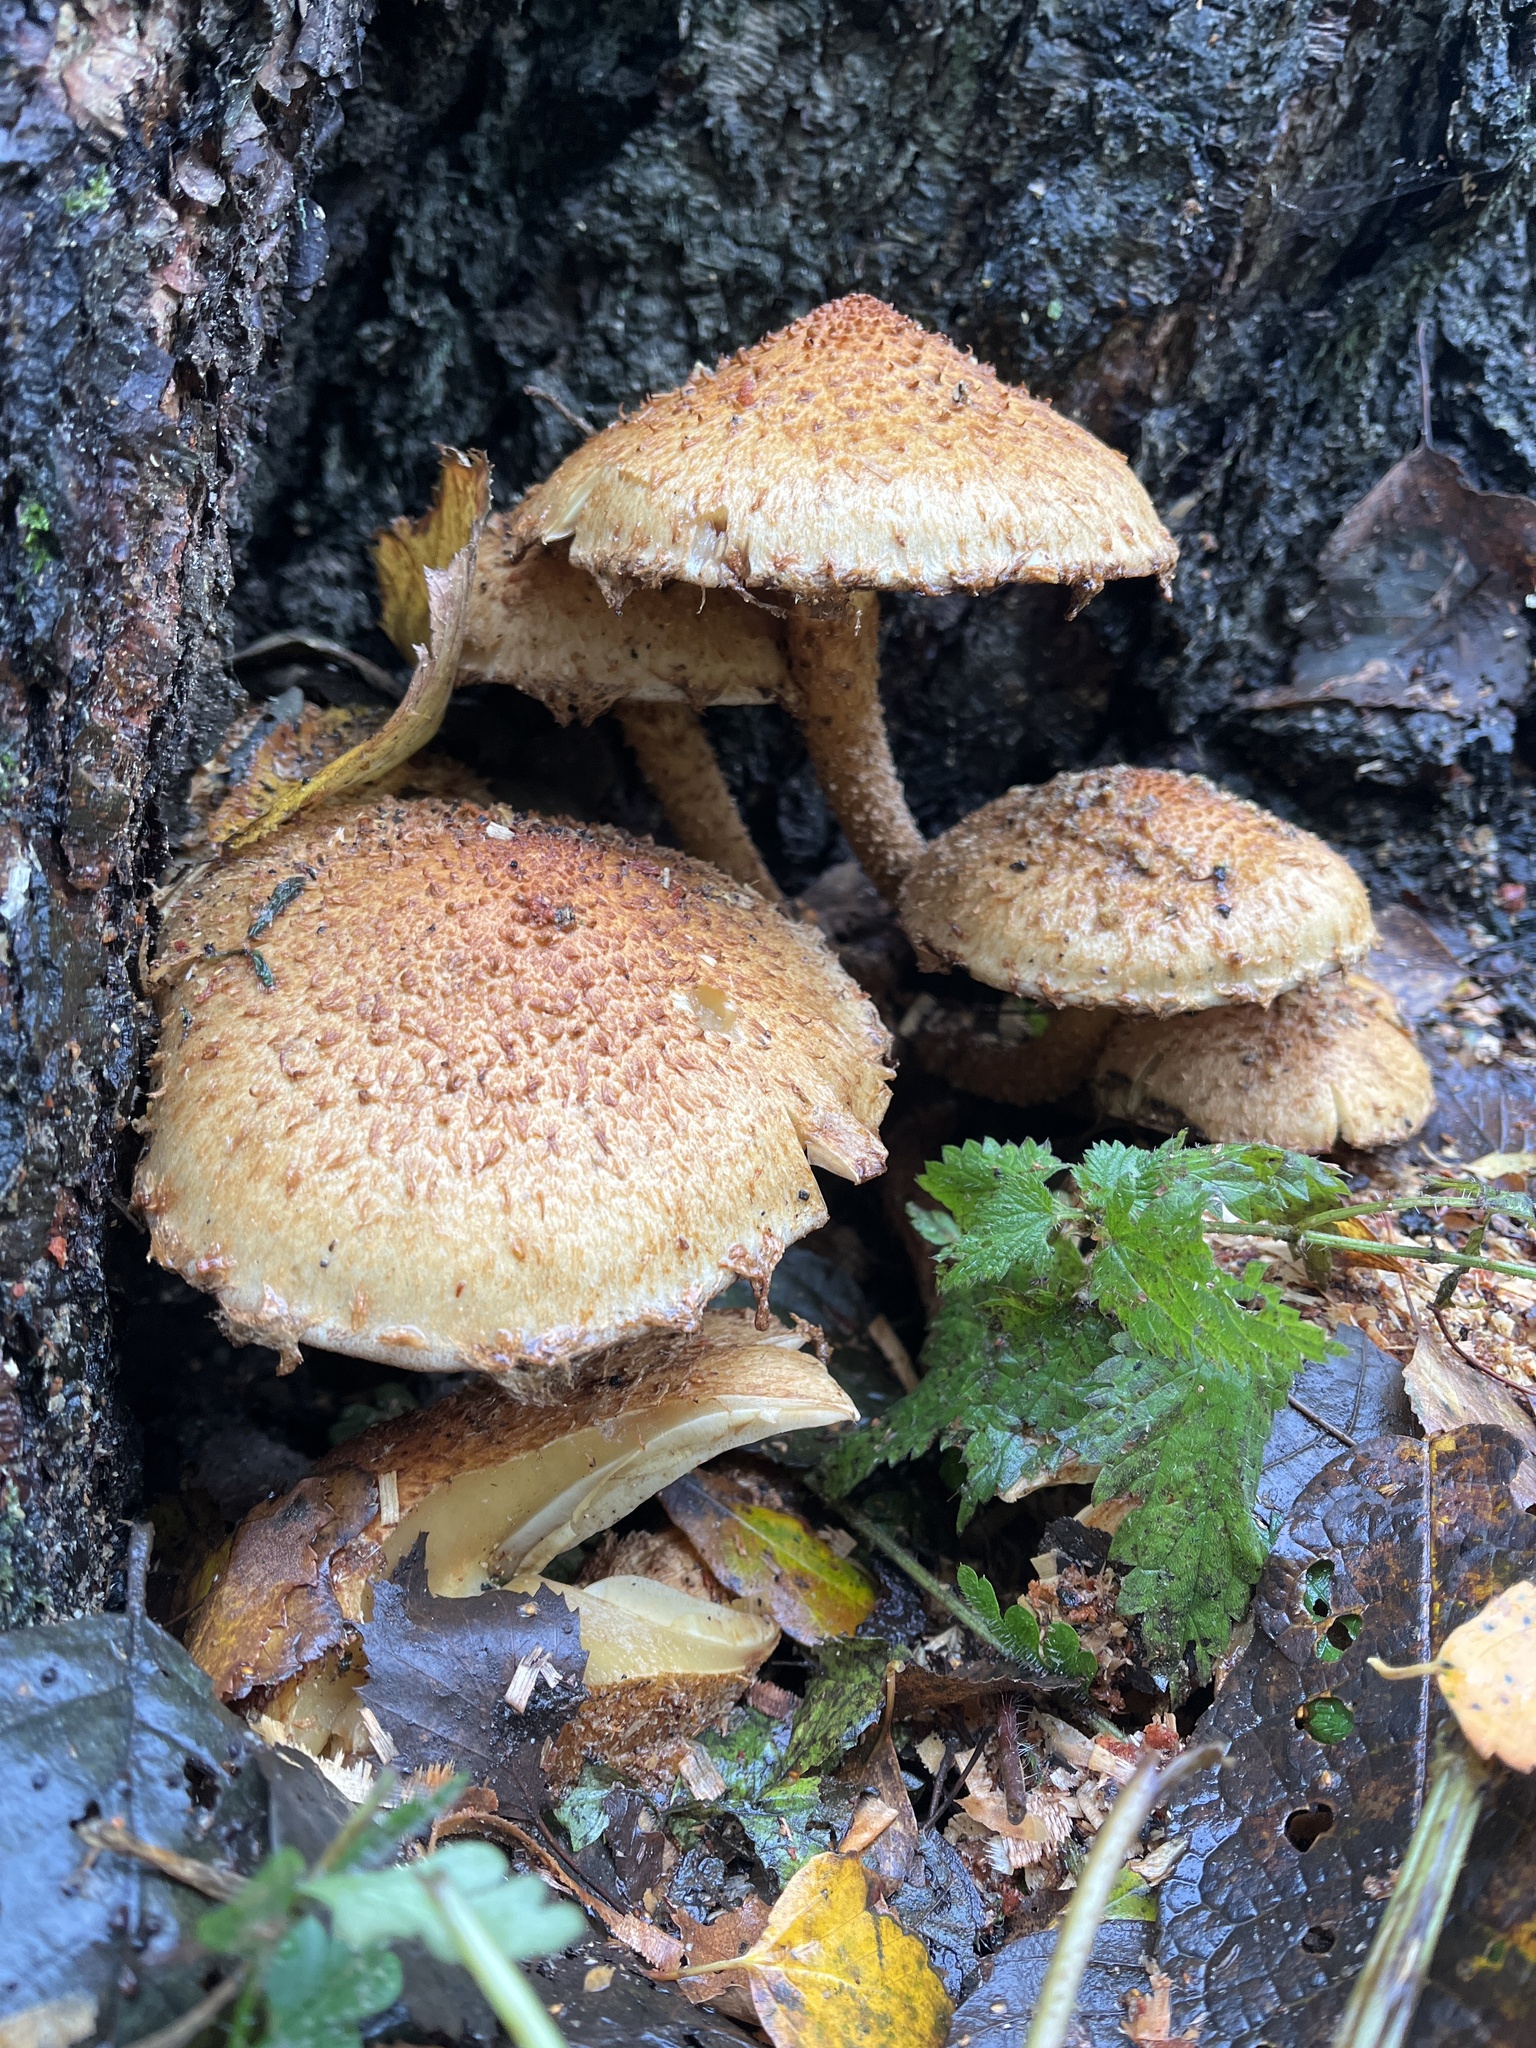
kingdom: Fungi
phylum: Basidiomycota
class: Agaricomycetes
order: Agaricales
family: Strophariaceae
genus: Pholiota
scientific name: Pholiota squarrosa
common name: Shaggy pholiota
